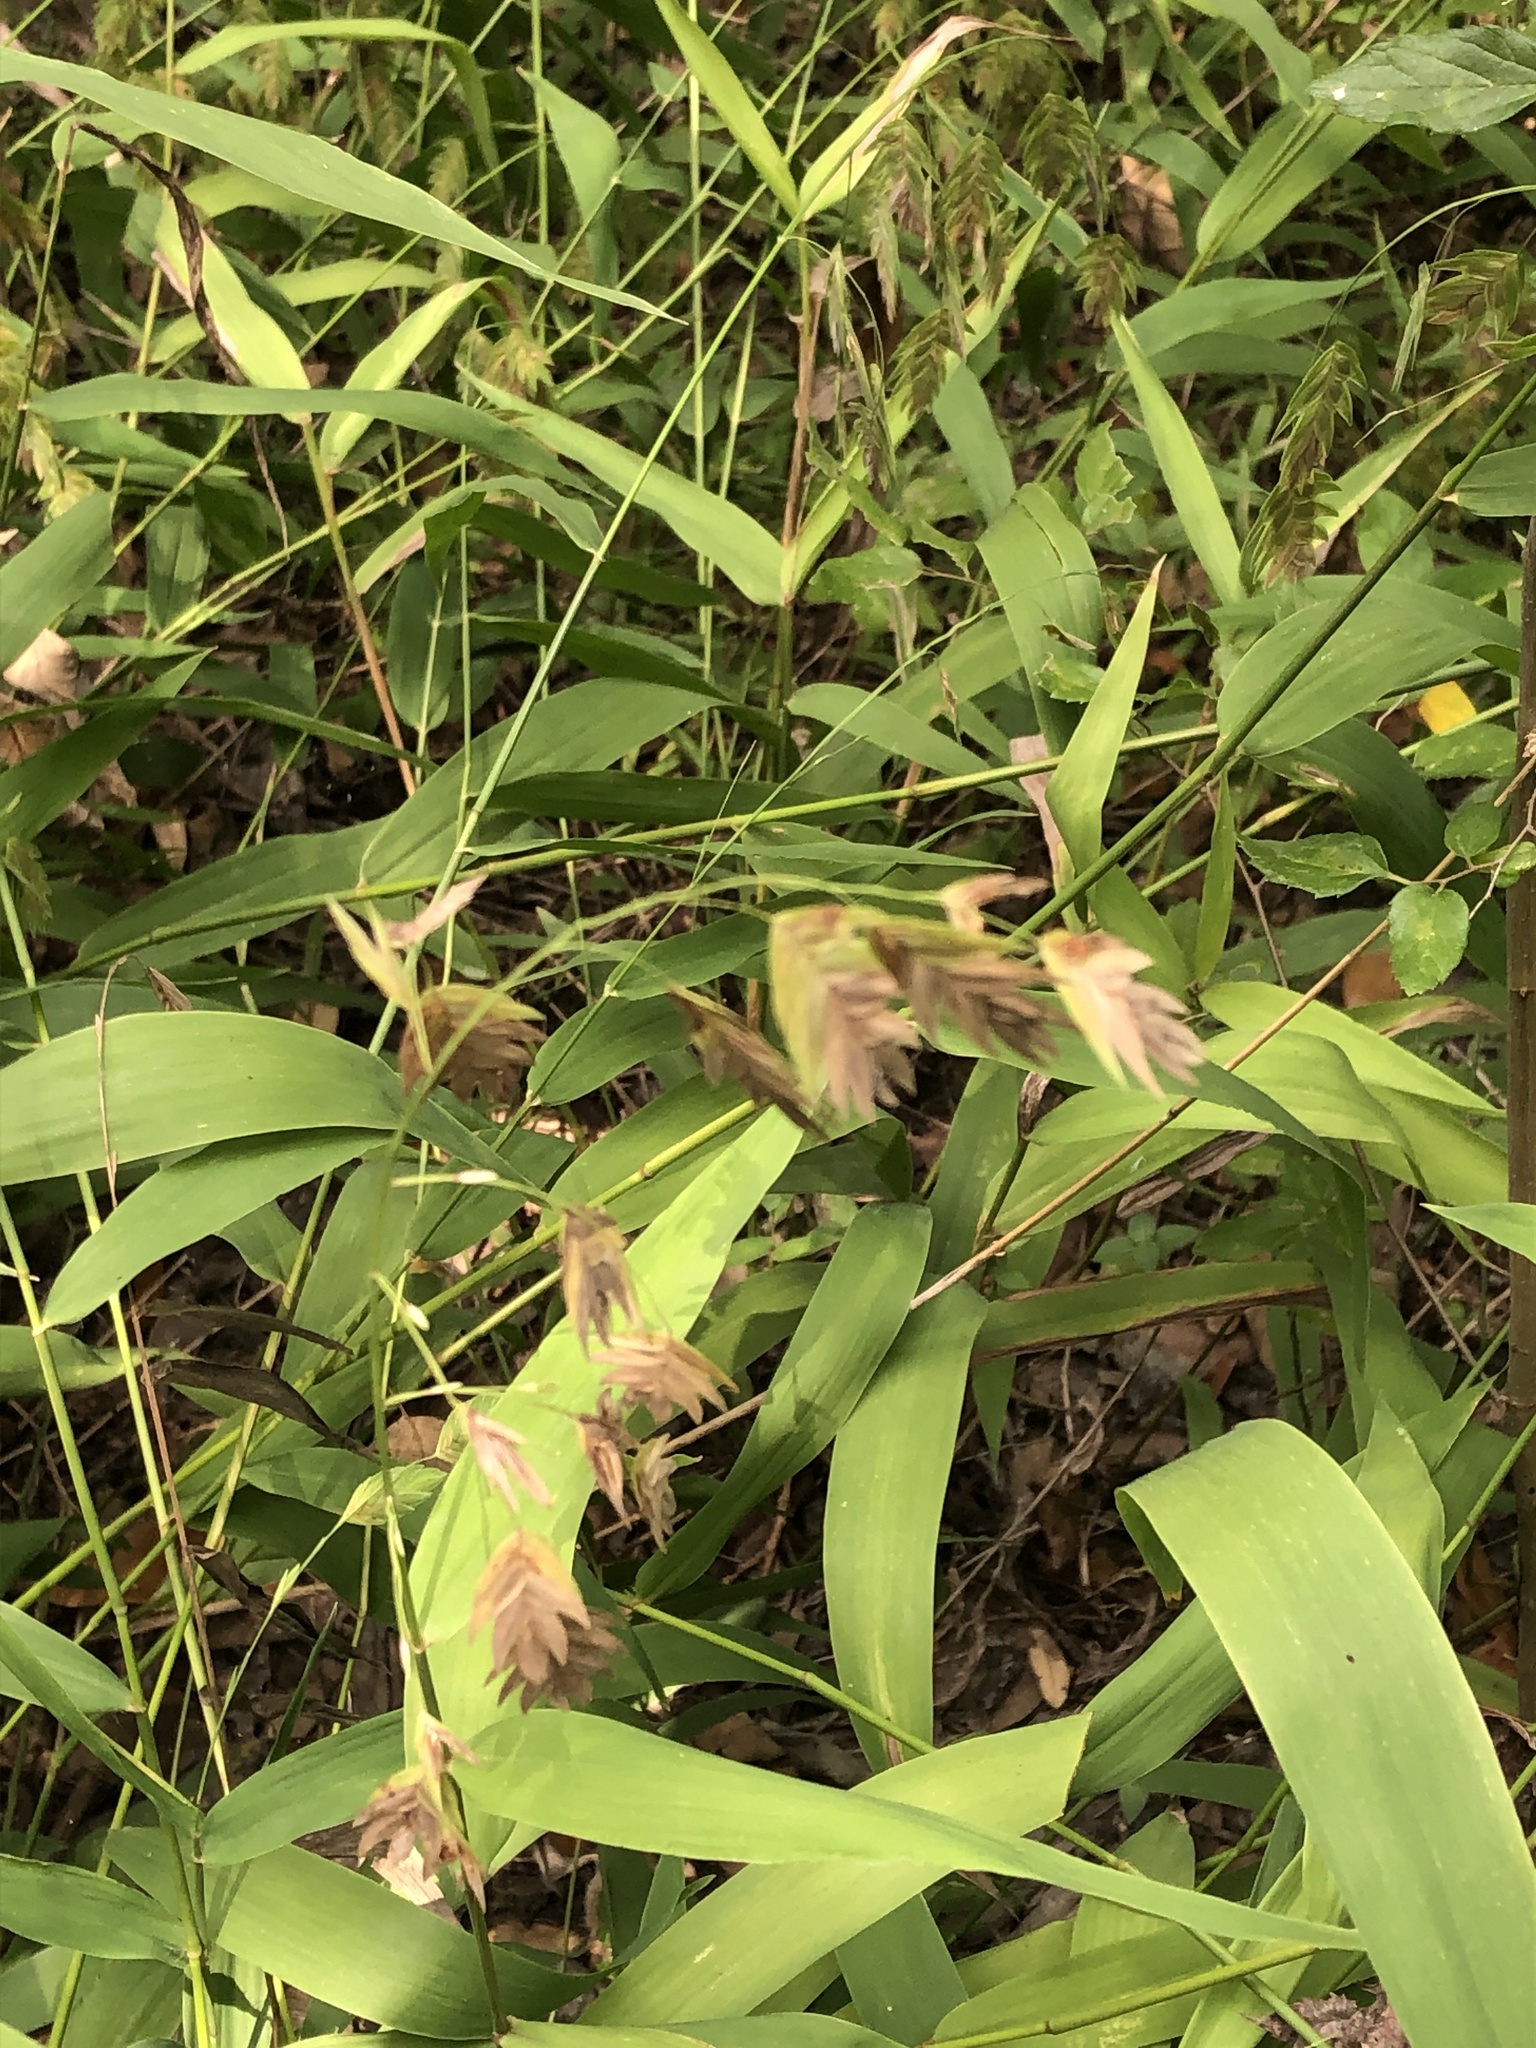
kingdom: Plantae
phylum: Tracheophyta
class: Liliopsida
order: Poales
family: Poaceae
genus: Chasmanthium
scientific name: Chasmanthium latifolium
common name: Broad-leaved chasmanthium
